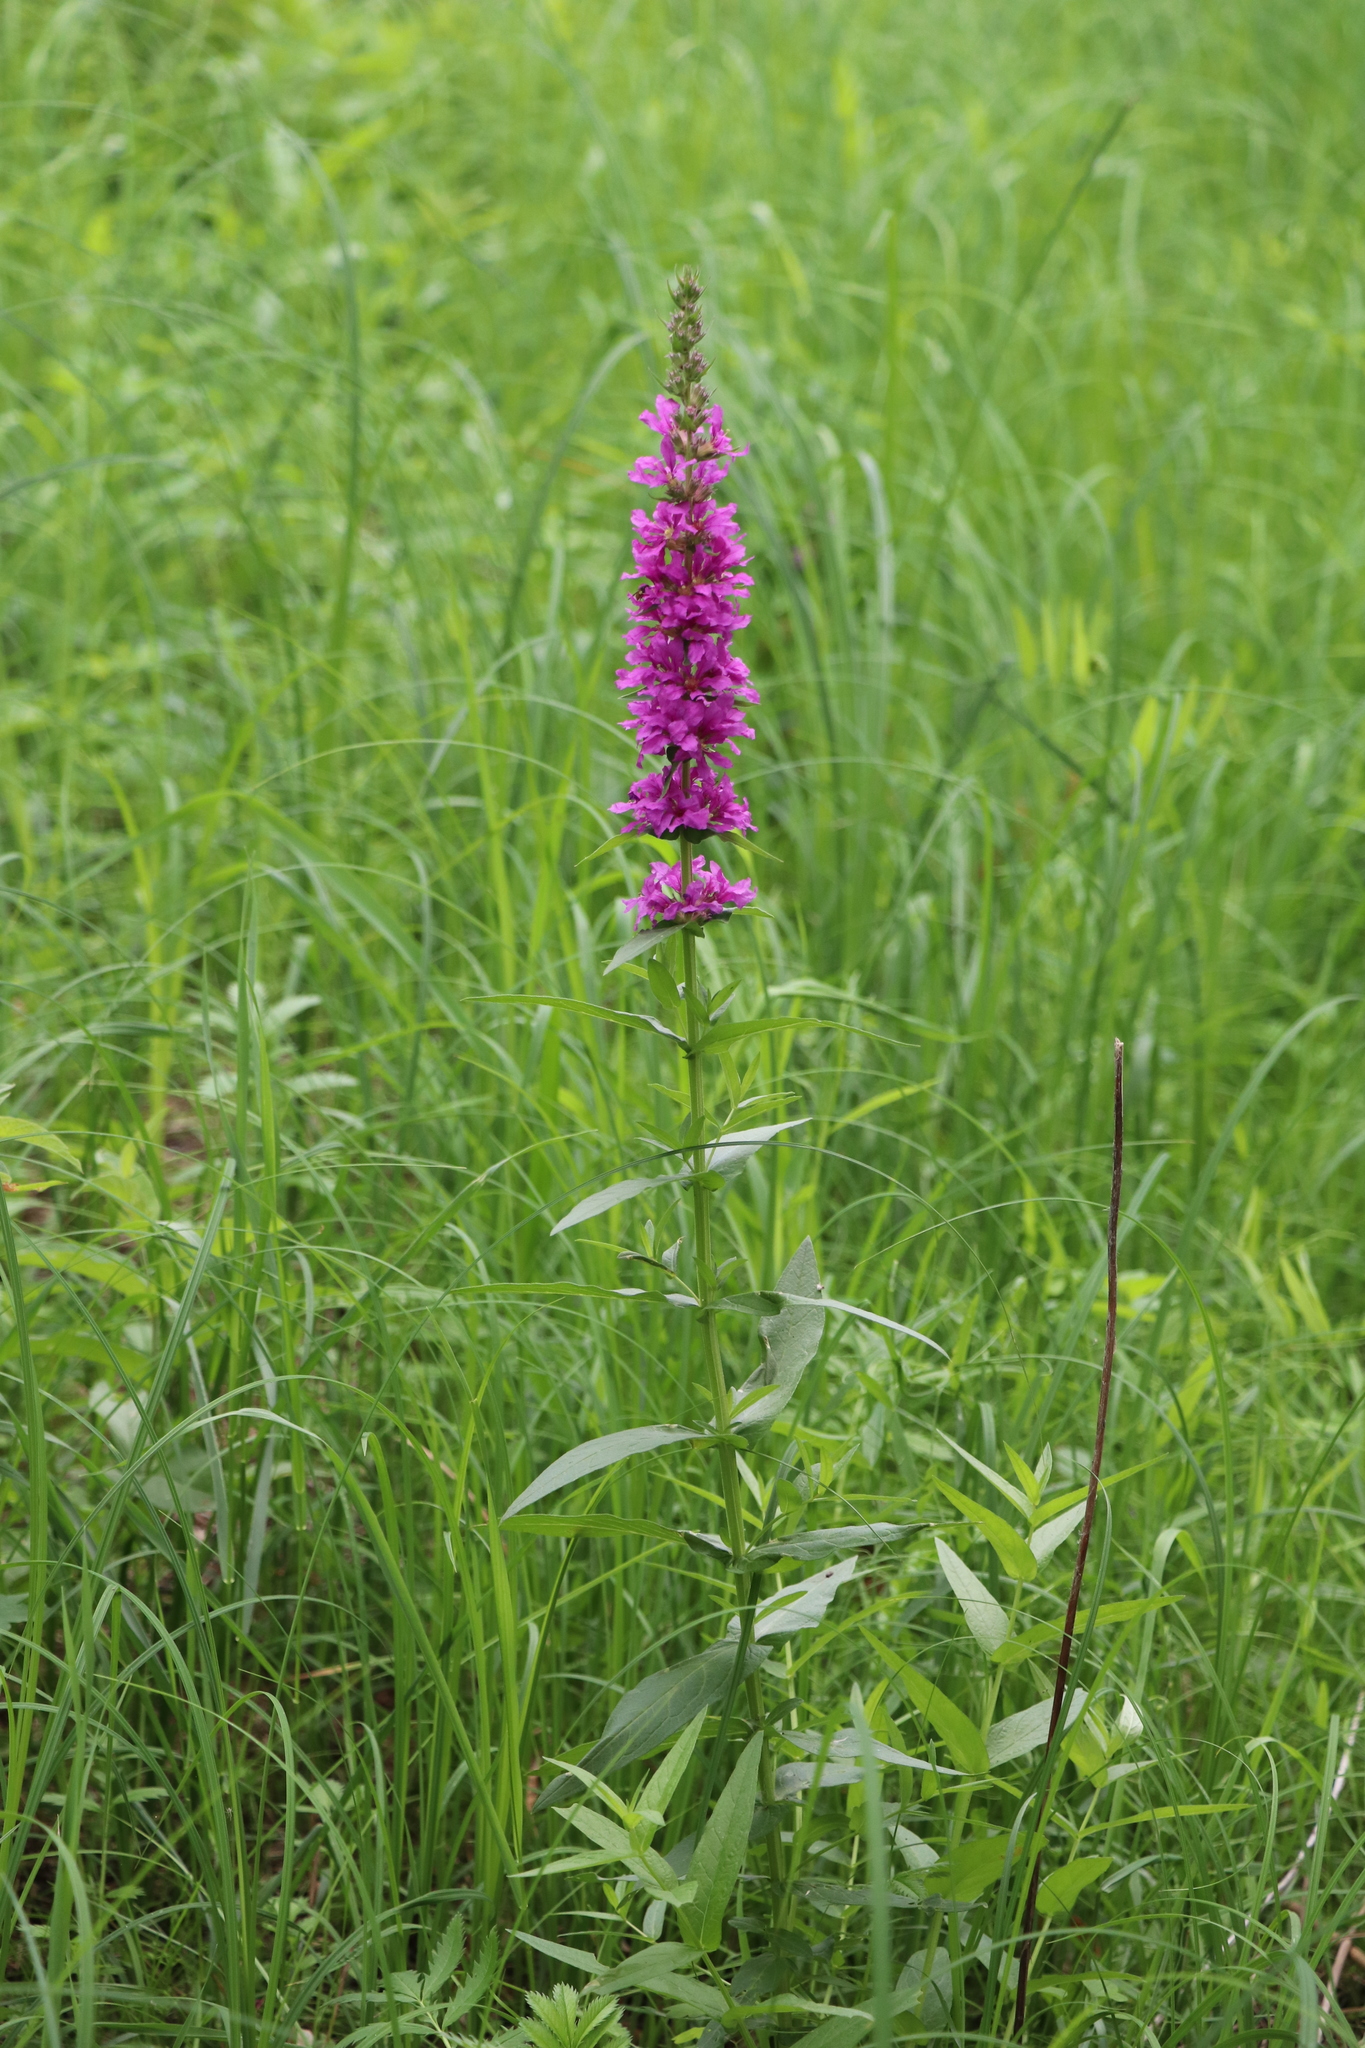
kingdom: Plantae
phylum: Tracheophyta
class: Magnoliopsida
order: Myrtales
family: Lythraceae
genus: Lythrum
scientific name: Lythrum salicaria
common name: Purple loosestrife
